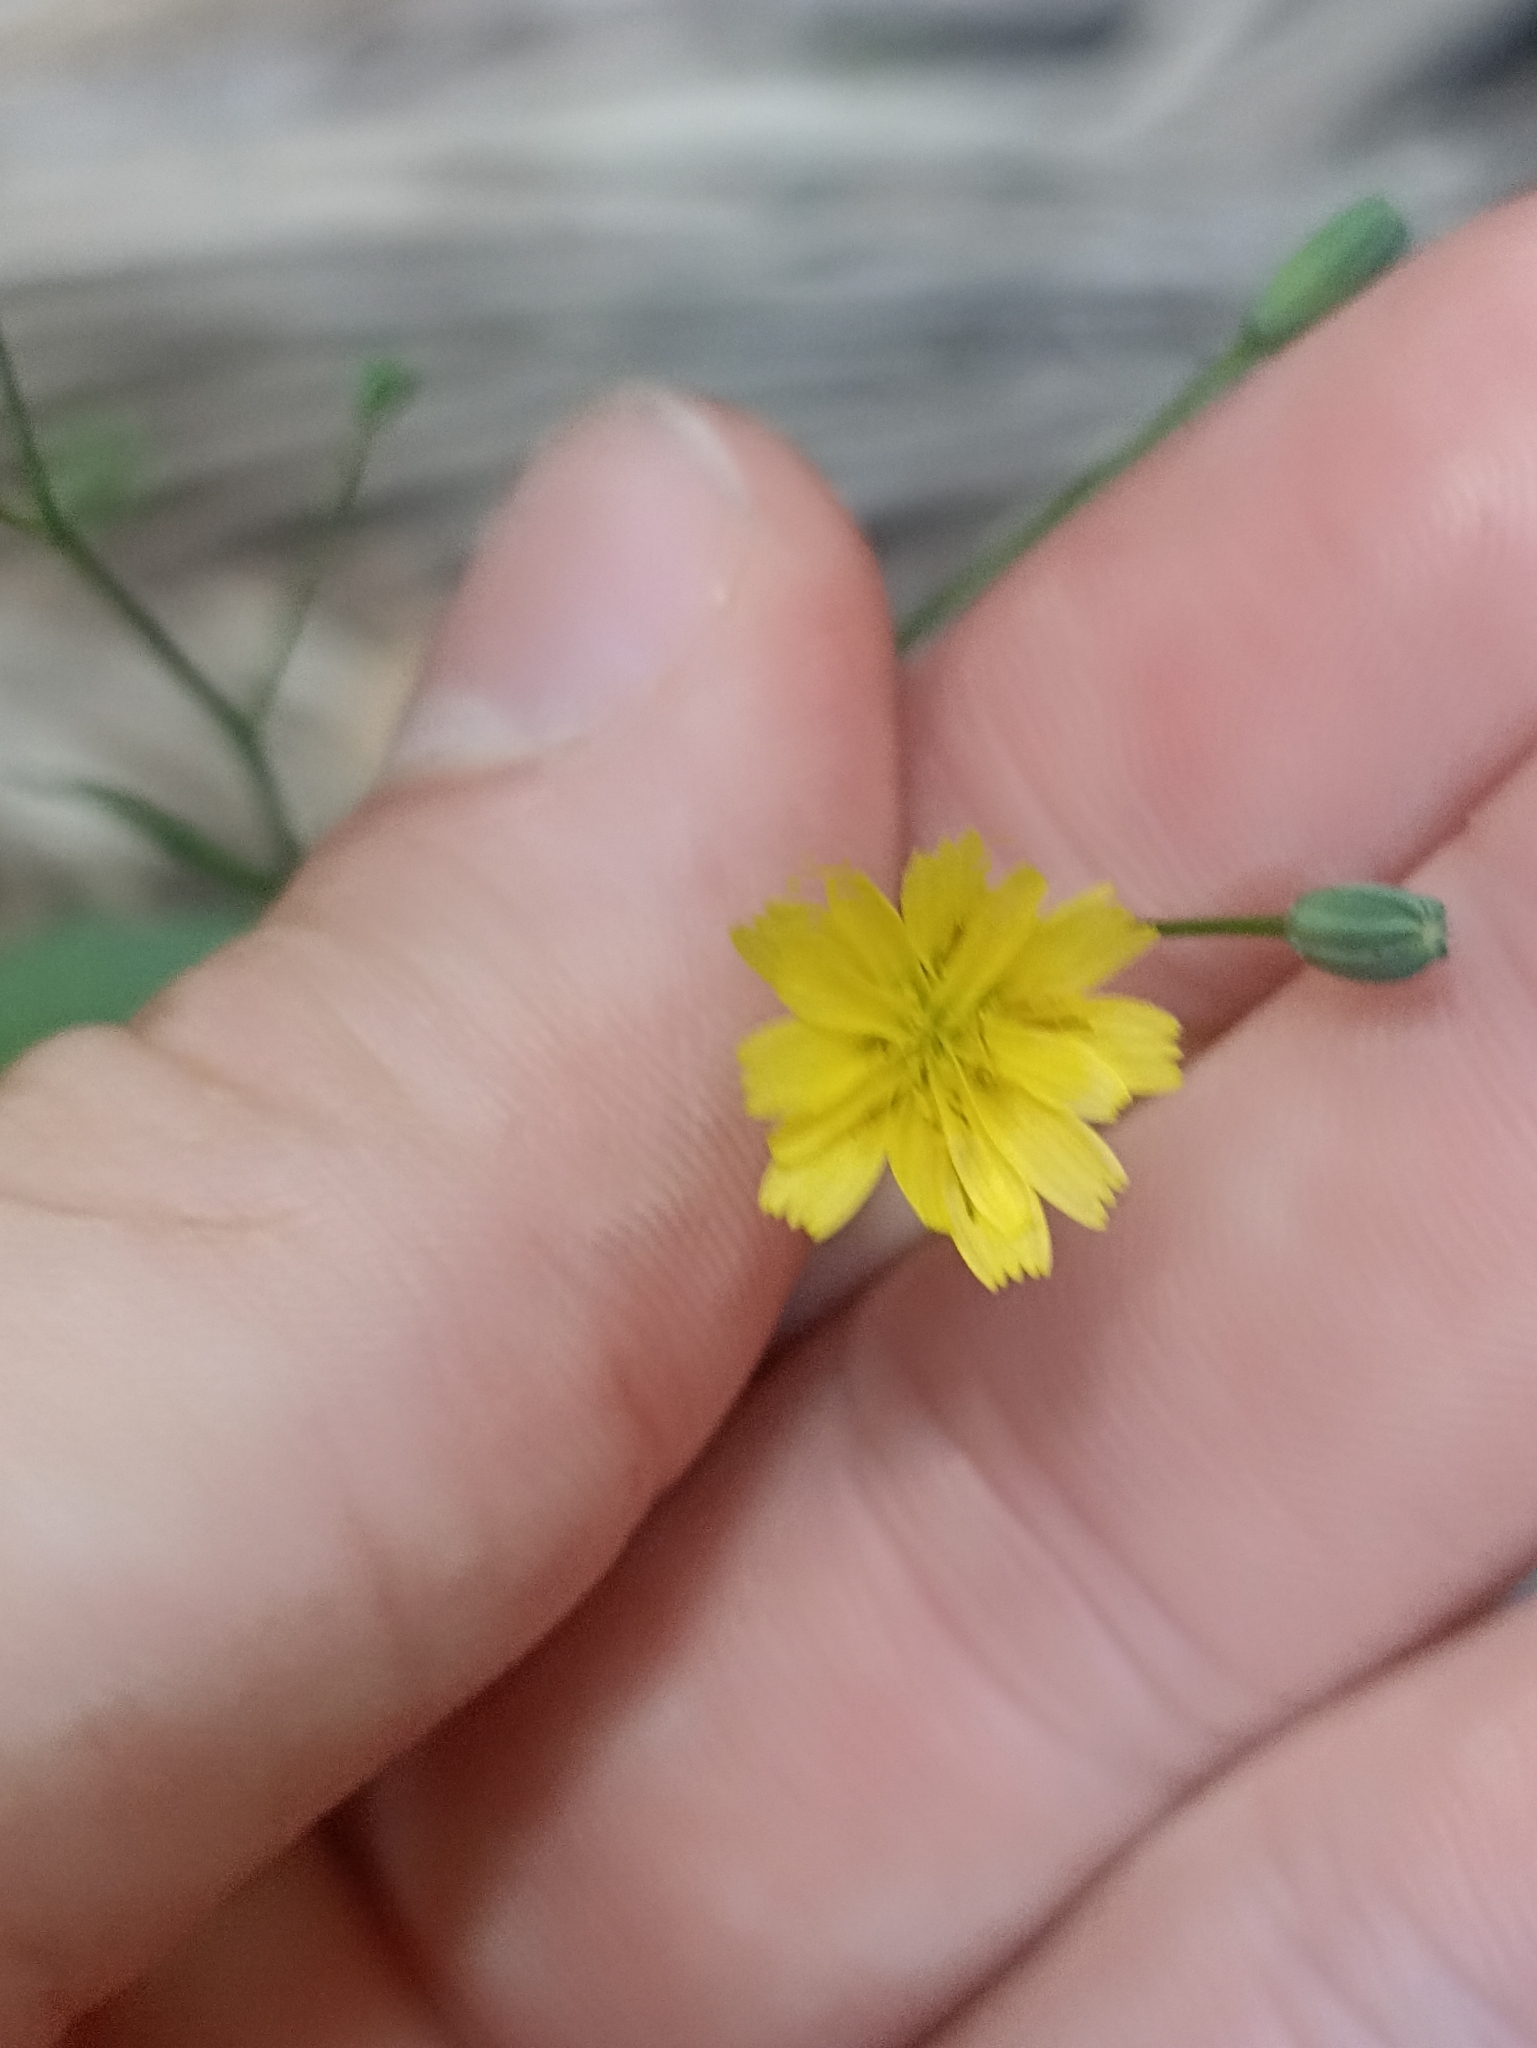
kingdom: Plantae
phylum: Tracheophyta
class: Magnoliopsida
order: Asterales
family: Asteraceae
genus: Lapsana
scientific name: Lapsana communis
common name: Nipplewort
